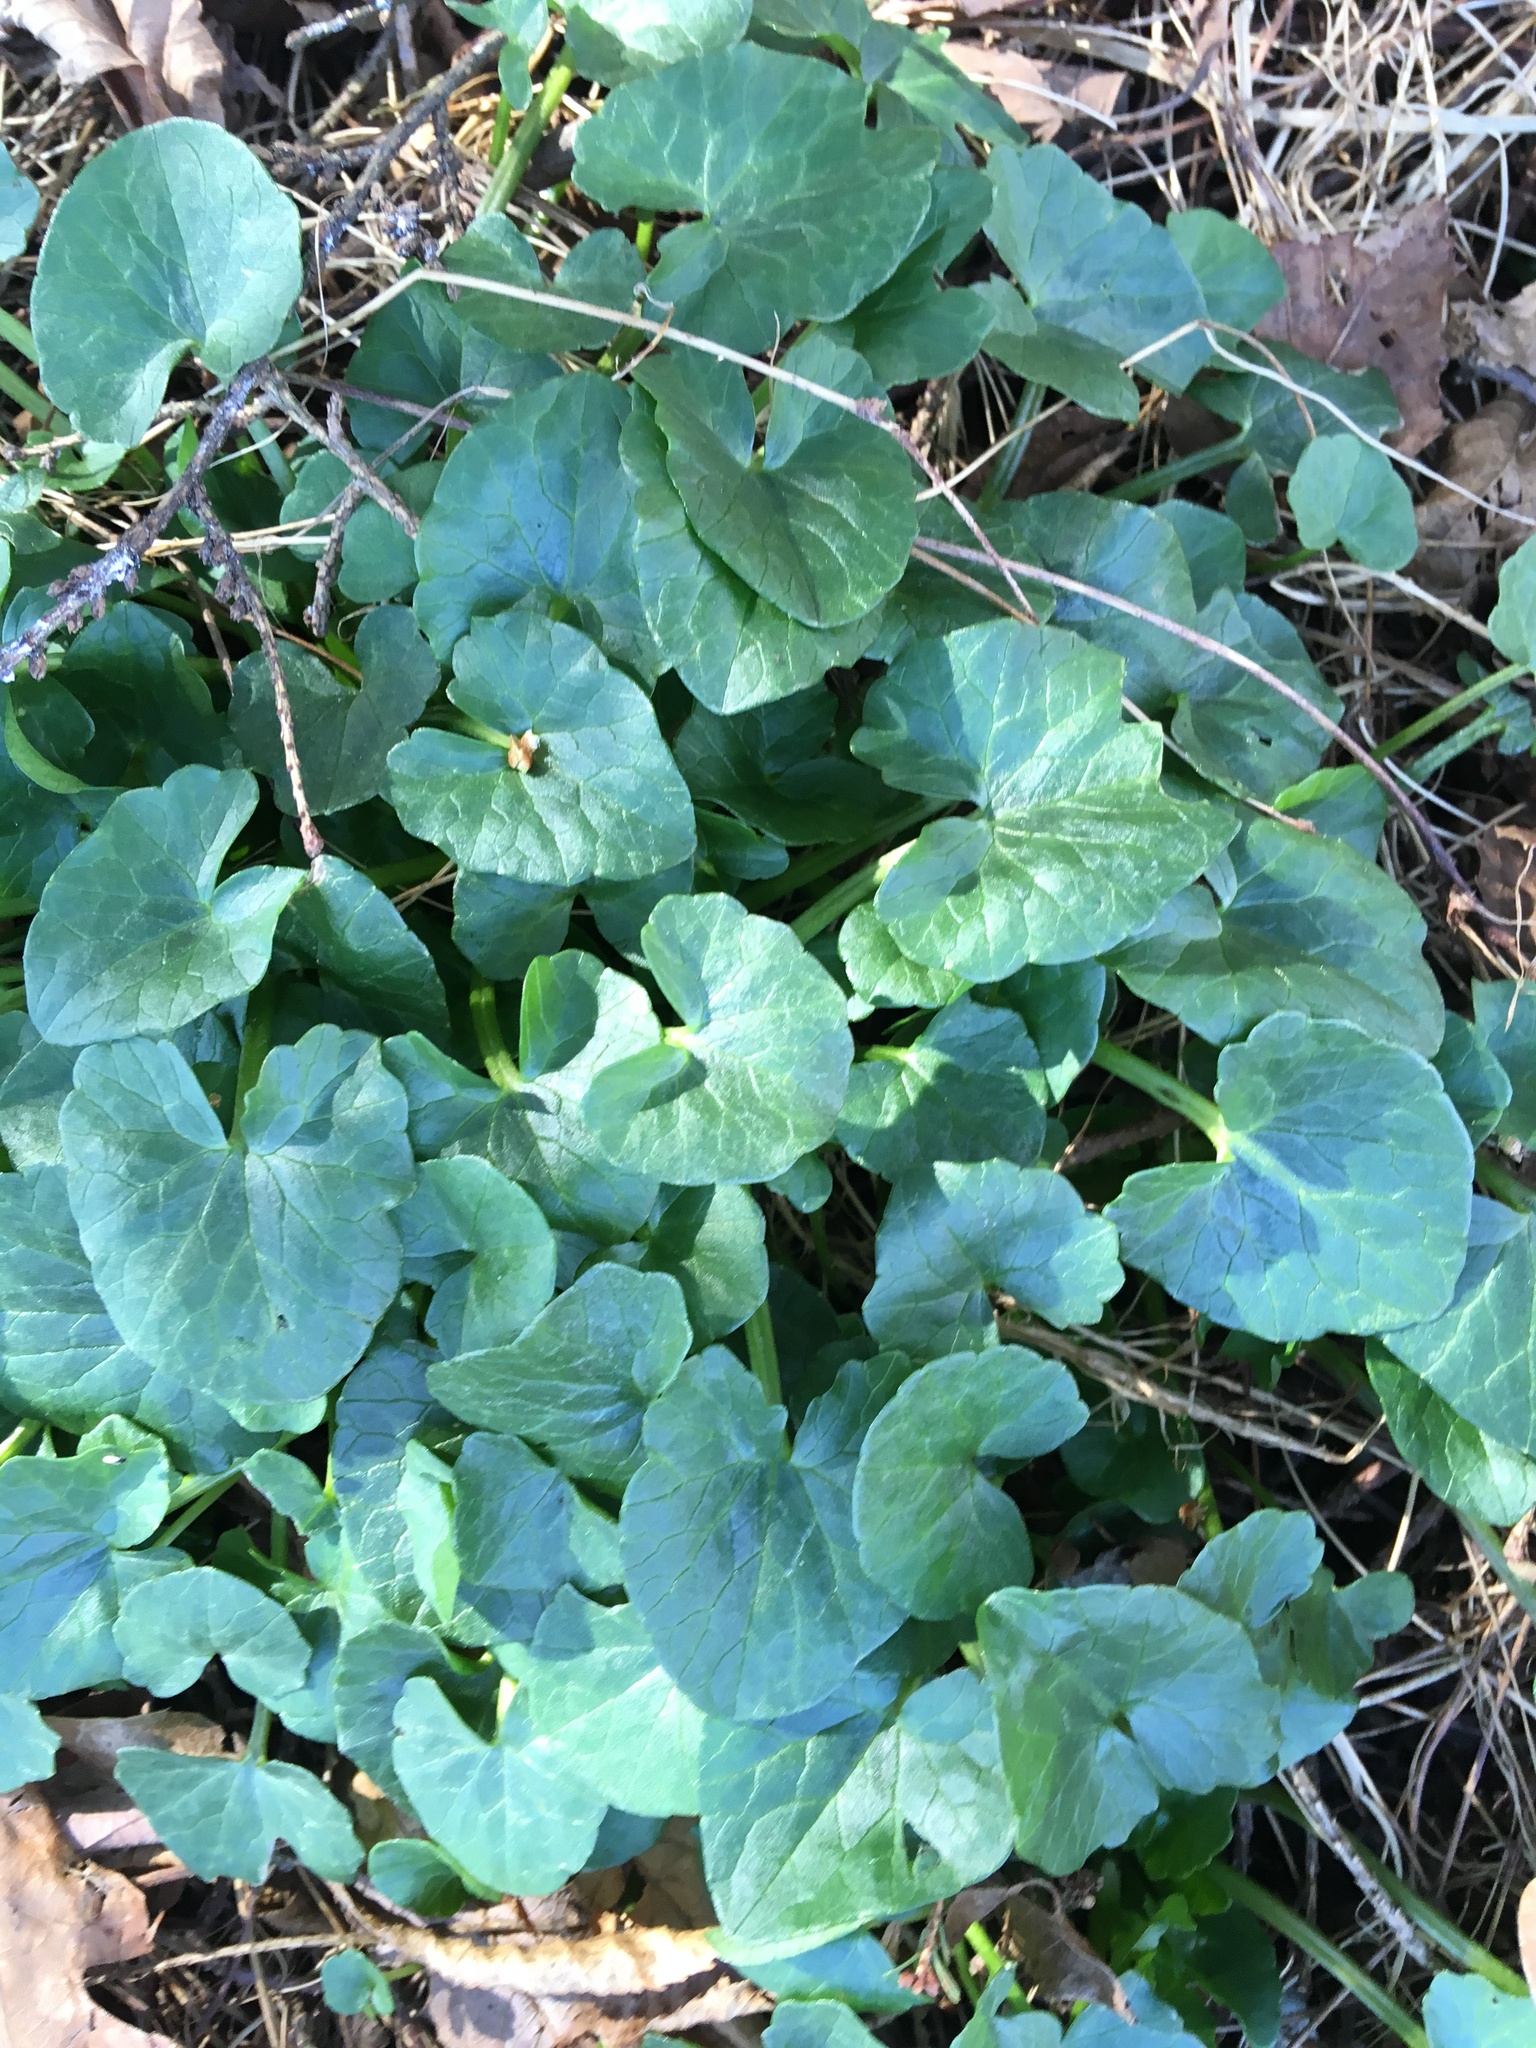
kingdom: Plantae
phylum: Tracheophyta
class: Magnoliopsida
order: Ranunculales
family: Ranunculaceae
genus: Ficaria
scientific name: Ficaria verna
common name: Lesser celandine
